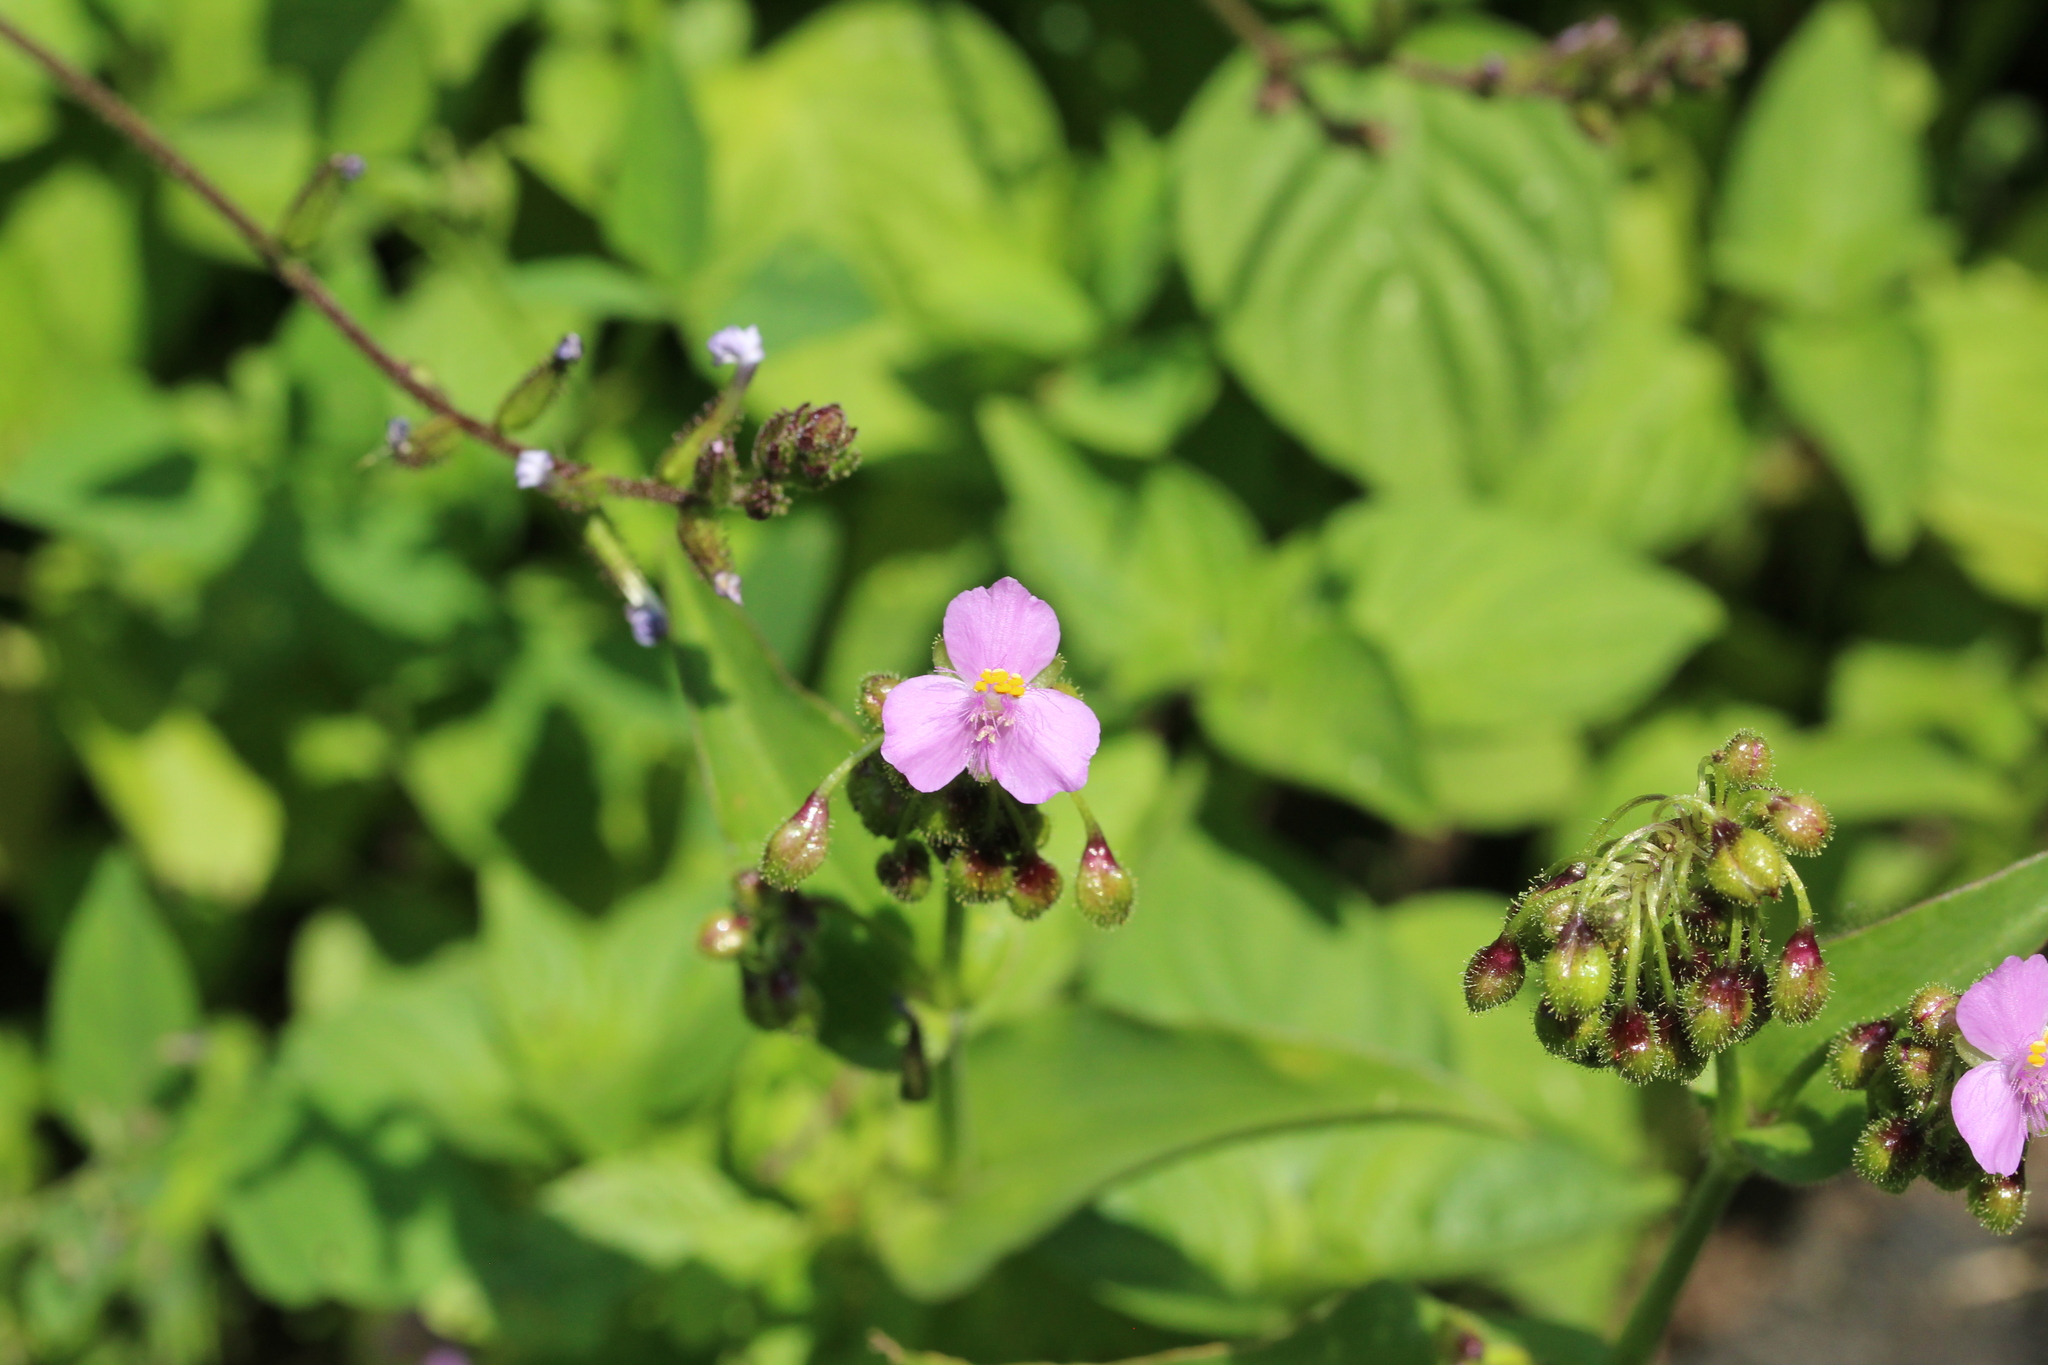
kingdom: Plantae
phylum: Tracheophyta
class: Liliopsida
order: Commelinales
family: Commelinaceae
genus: Tinantia
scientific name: Tinantia erecta
